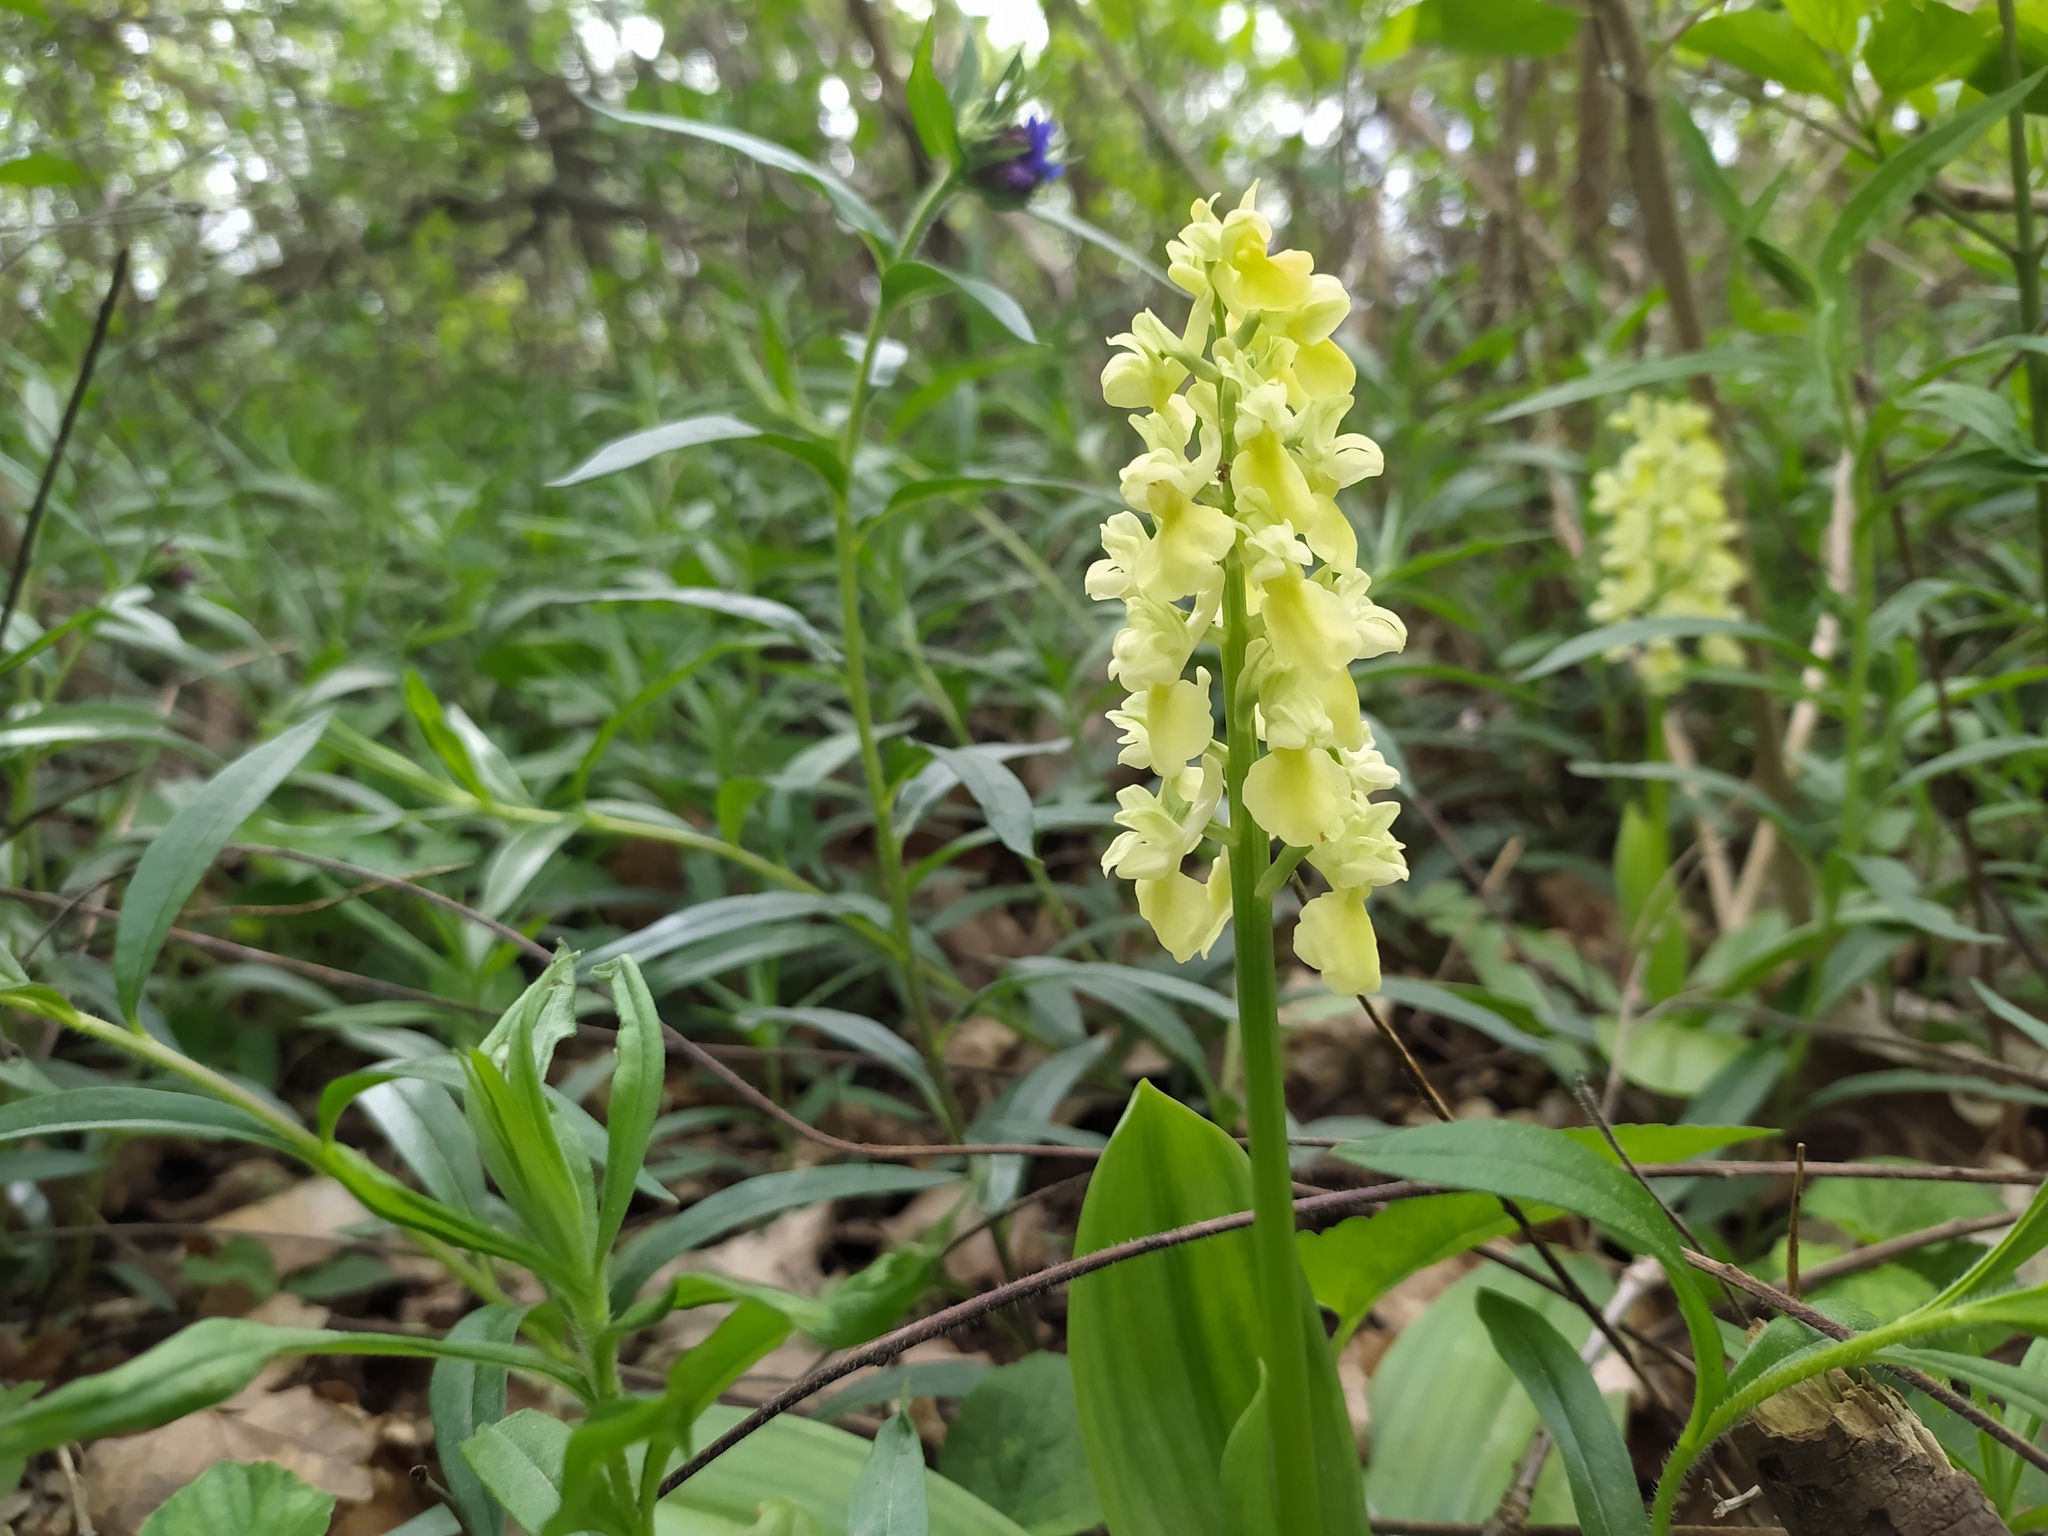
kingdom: Plantae
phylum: Tracheophyta
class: Liliopsida
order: Asparagales
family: Orchidaceae
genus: Orchis
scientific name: Orchis pallens
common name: Pale-flowered orchid
